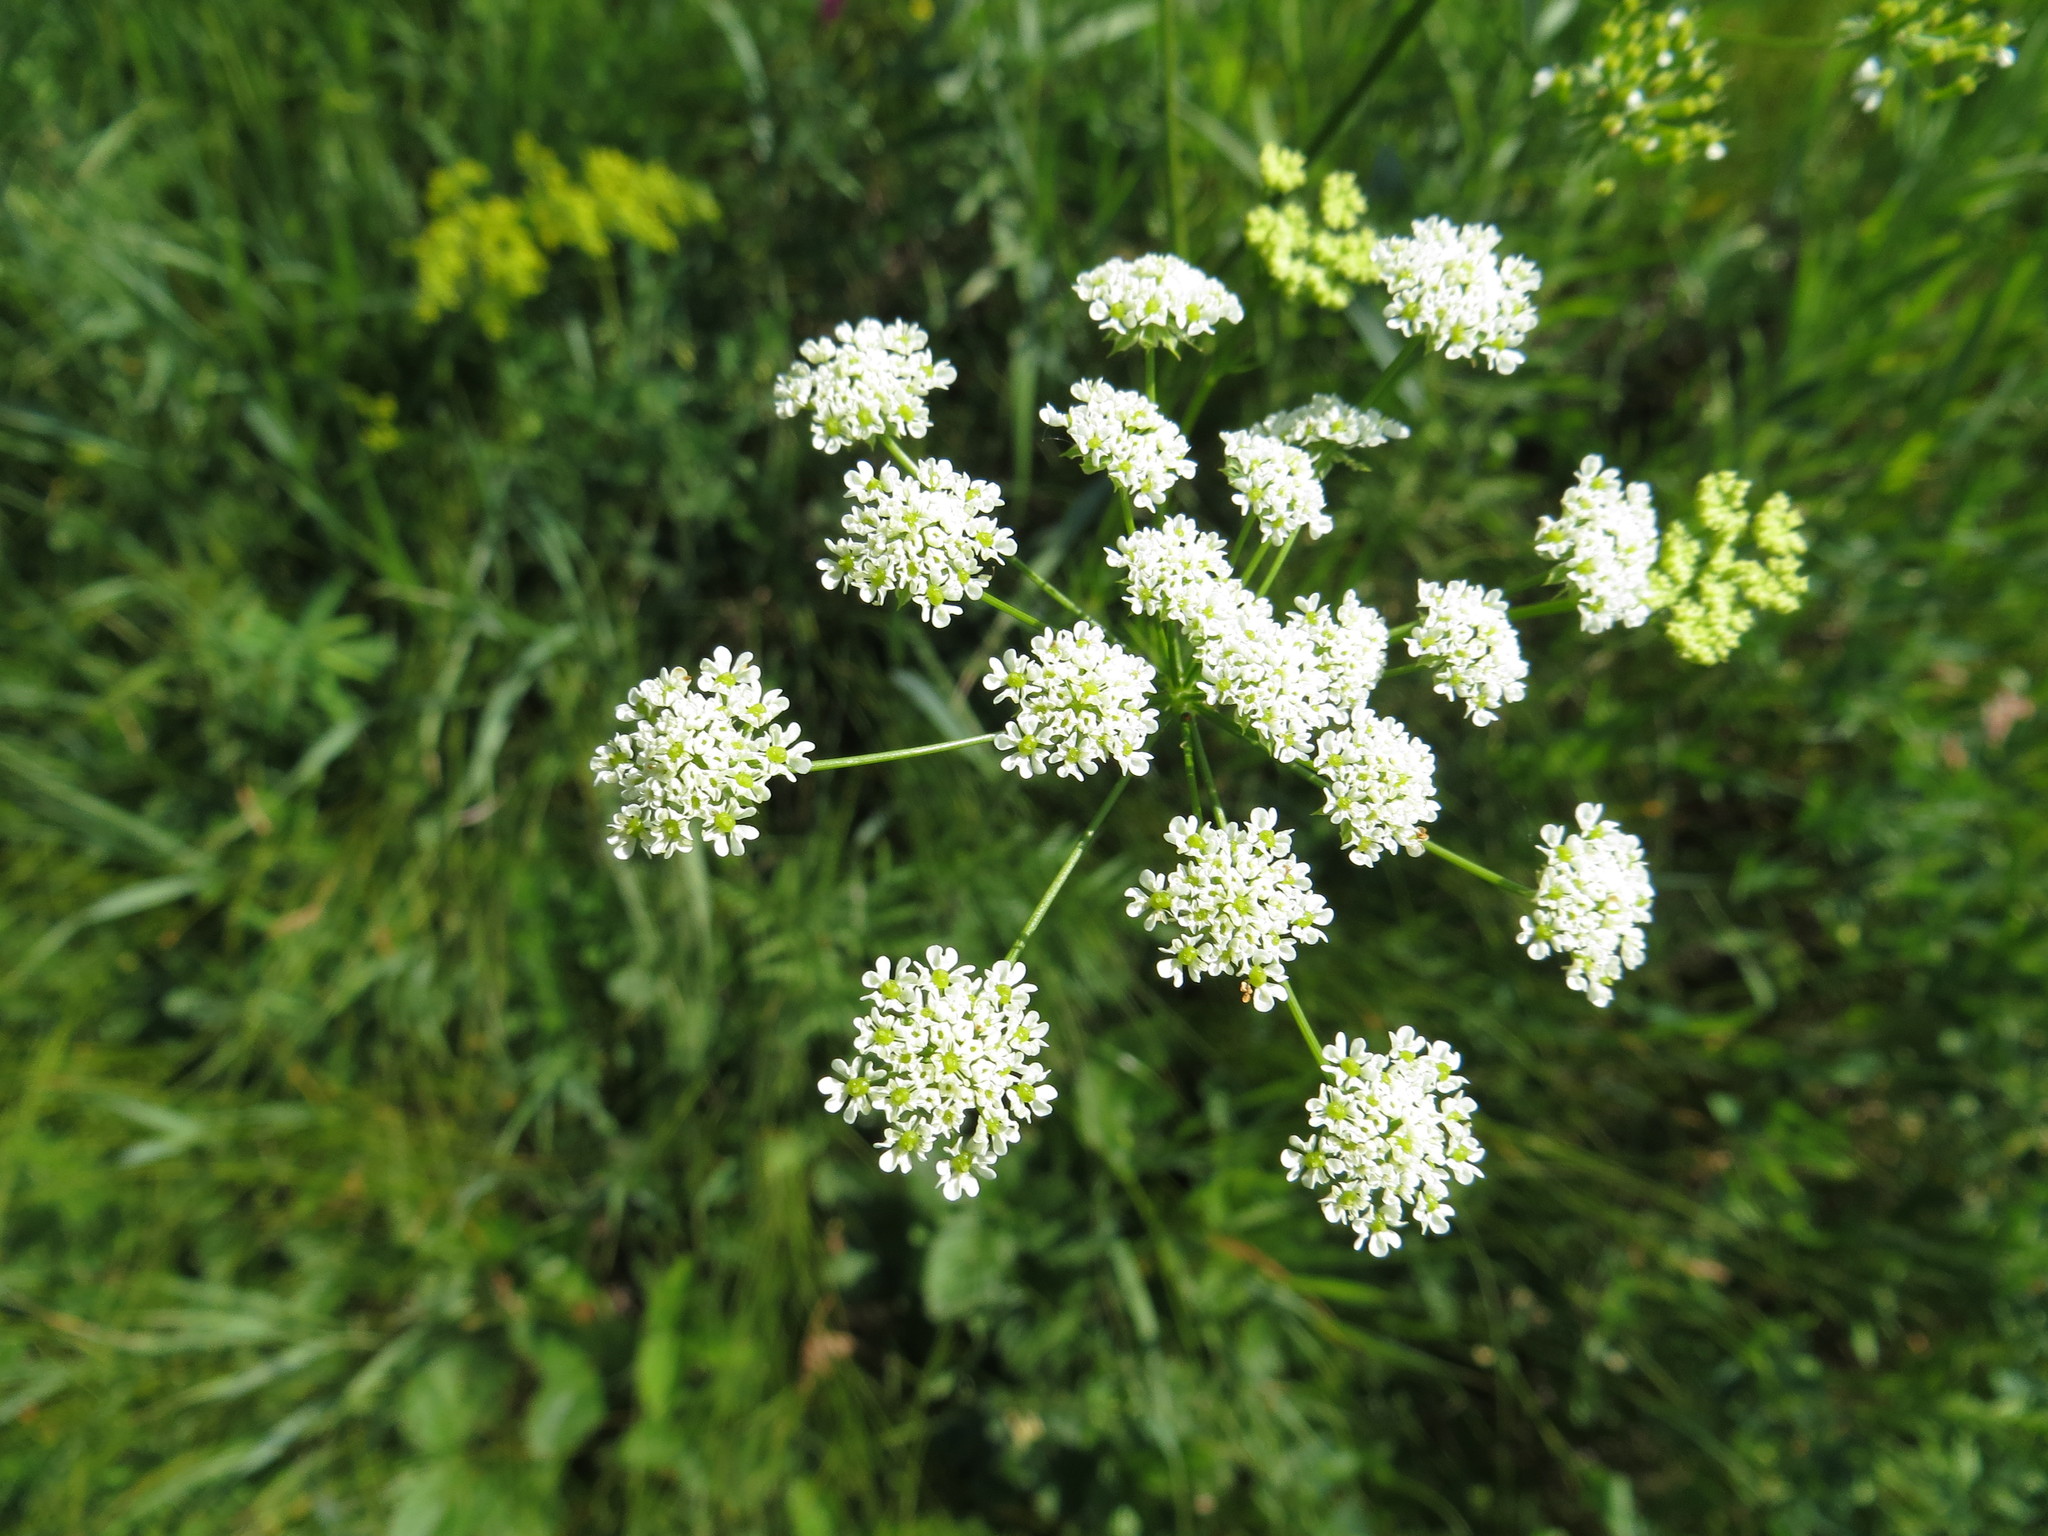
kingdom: Plantae
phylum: Tracheophyta
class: Magnoliopsida
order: Apiales
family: Apiaceae
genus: Chaerophyllum
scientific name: Chaerophyllum prescottii
